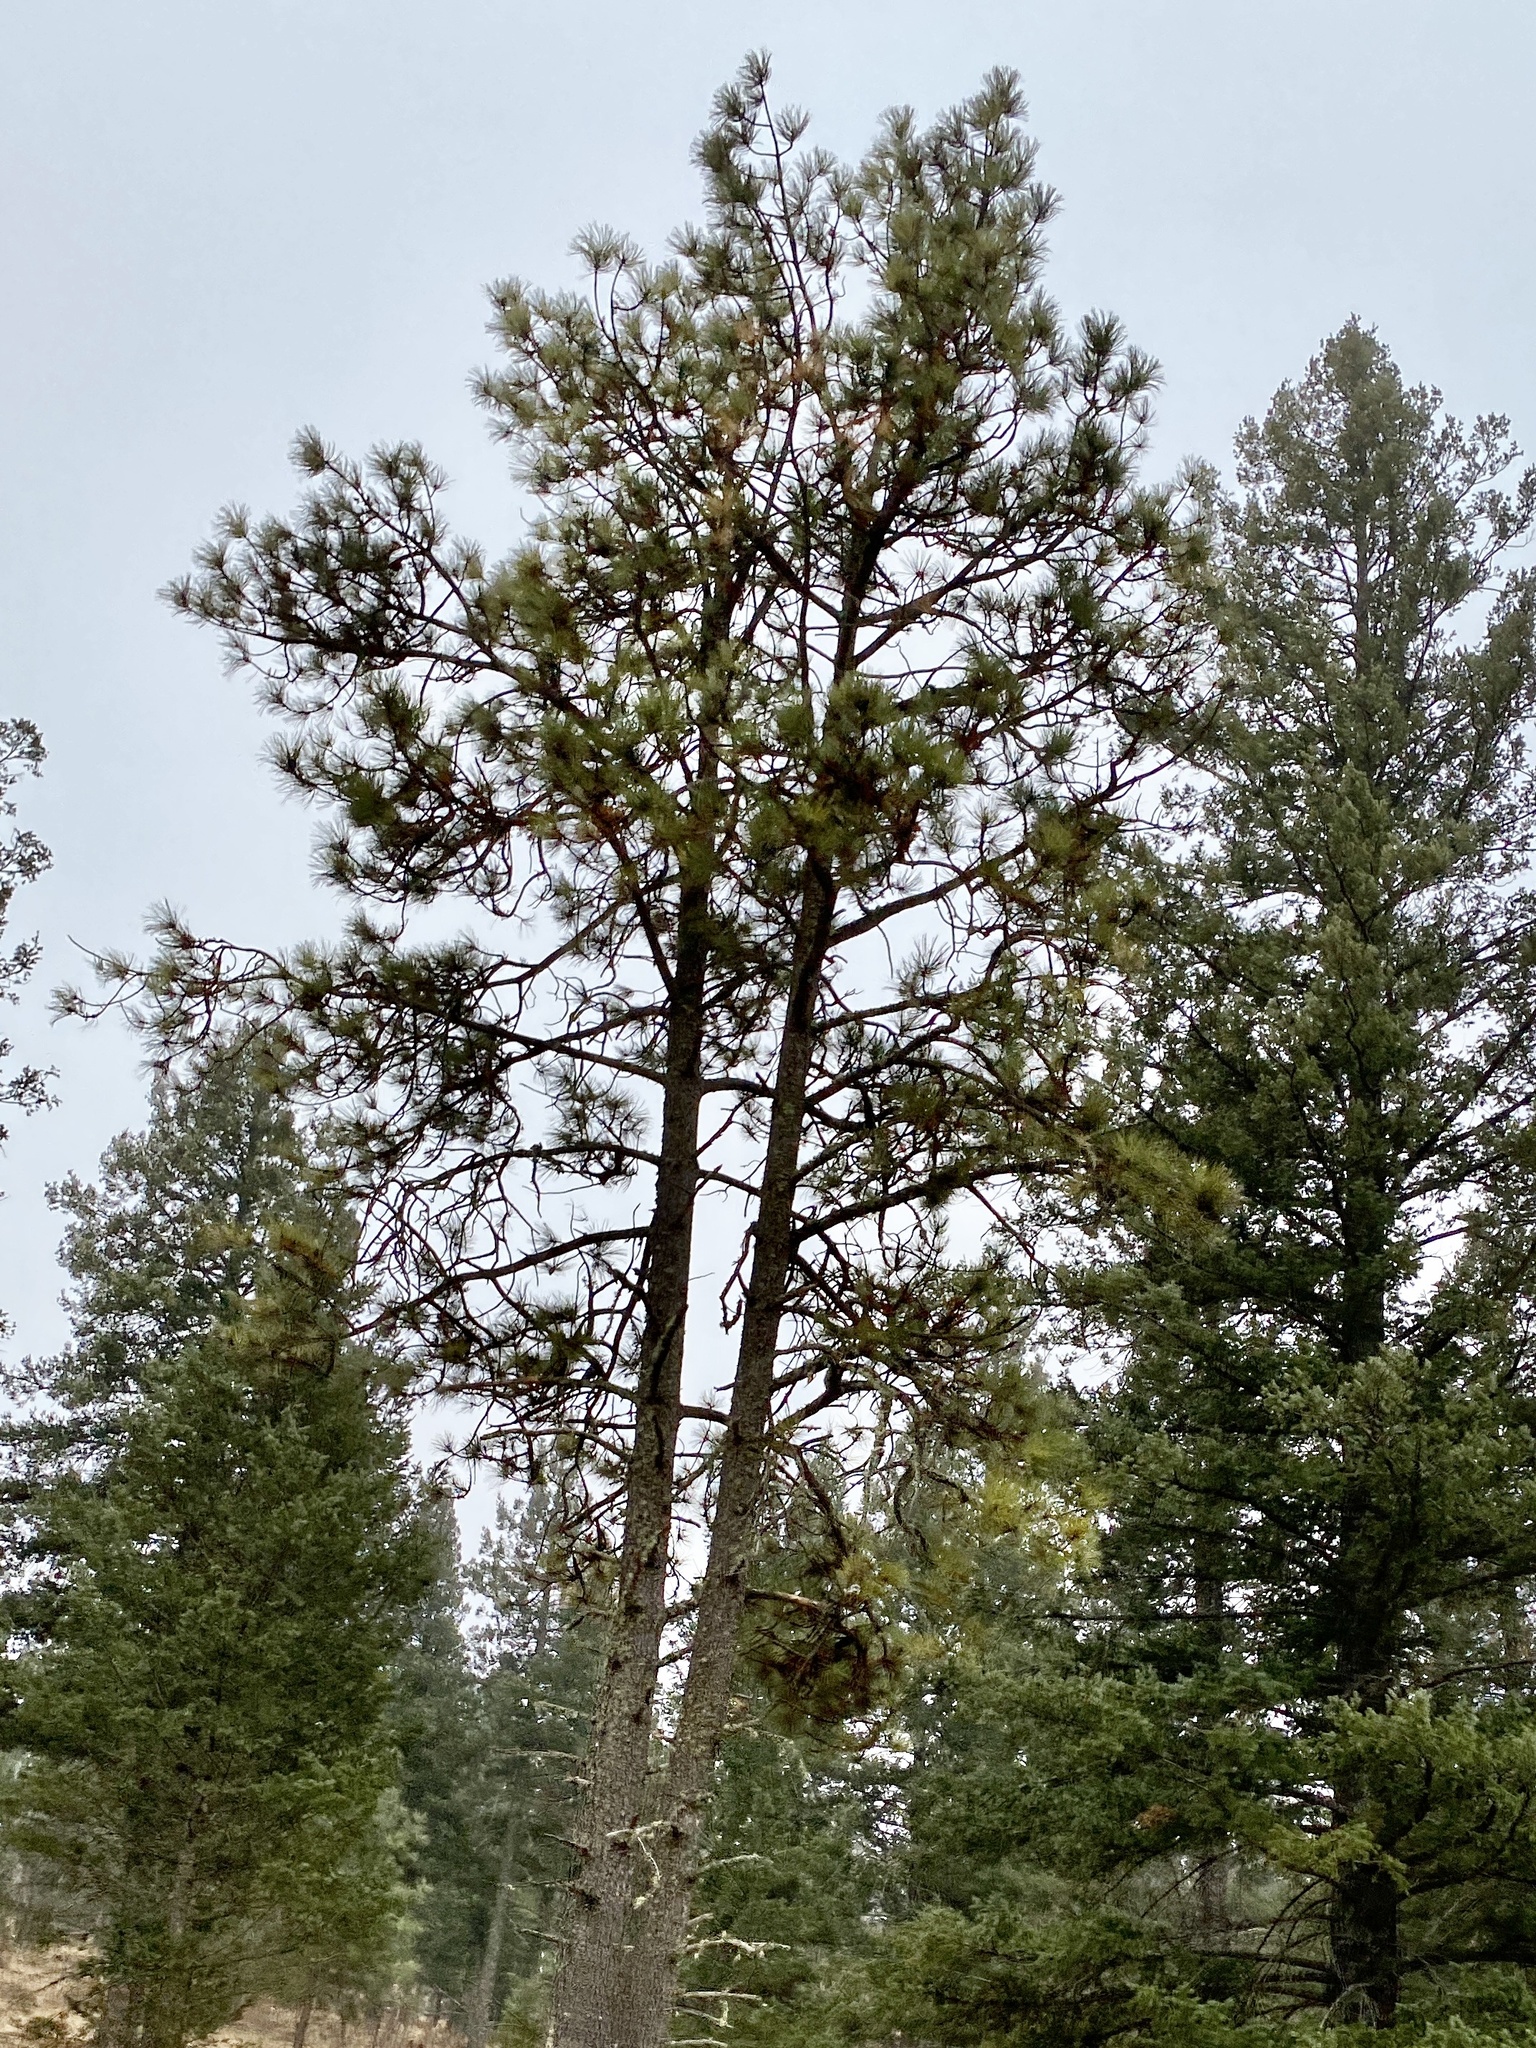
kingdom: Plantae
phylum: Tracheophyta
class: Pinopsida
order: Pinales
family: Pinaceae
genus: Pinus
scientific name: Pinus ponderosa
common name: Western yellow-pine
